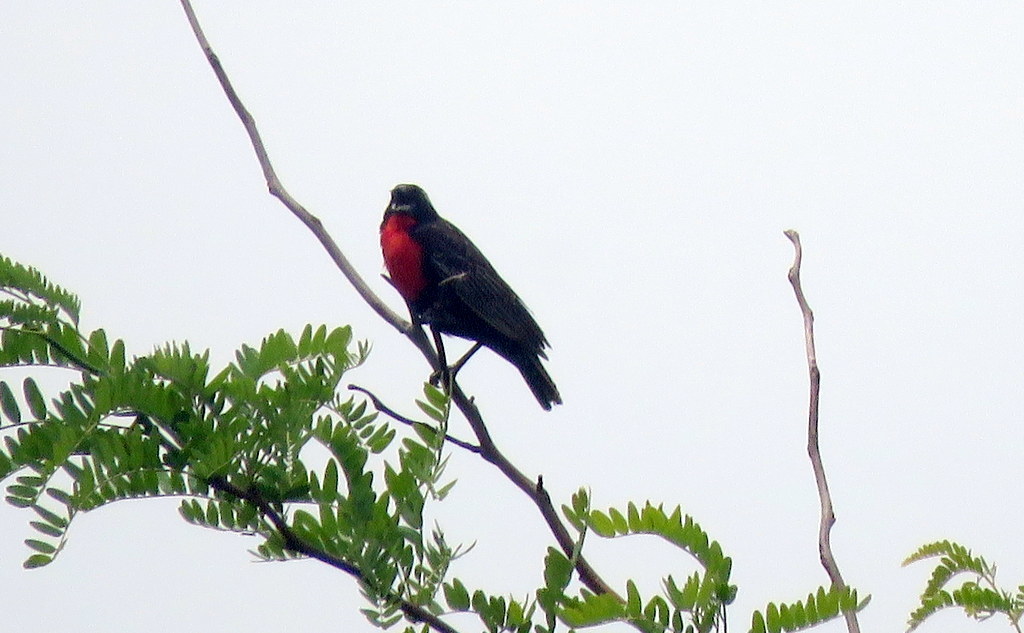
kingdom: Animalia
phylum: Chordata
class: Aves
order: Passeriformes
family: Icteridae
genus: Sturnella
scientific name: Sturnella superciliaris
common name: White-browed blackbird
